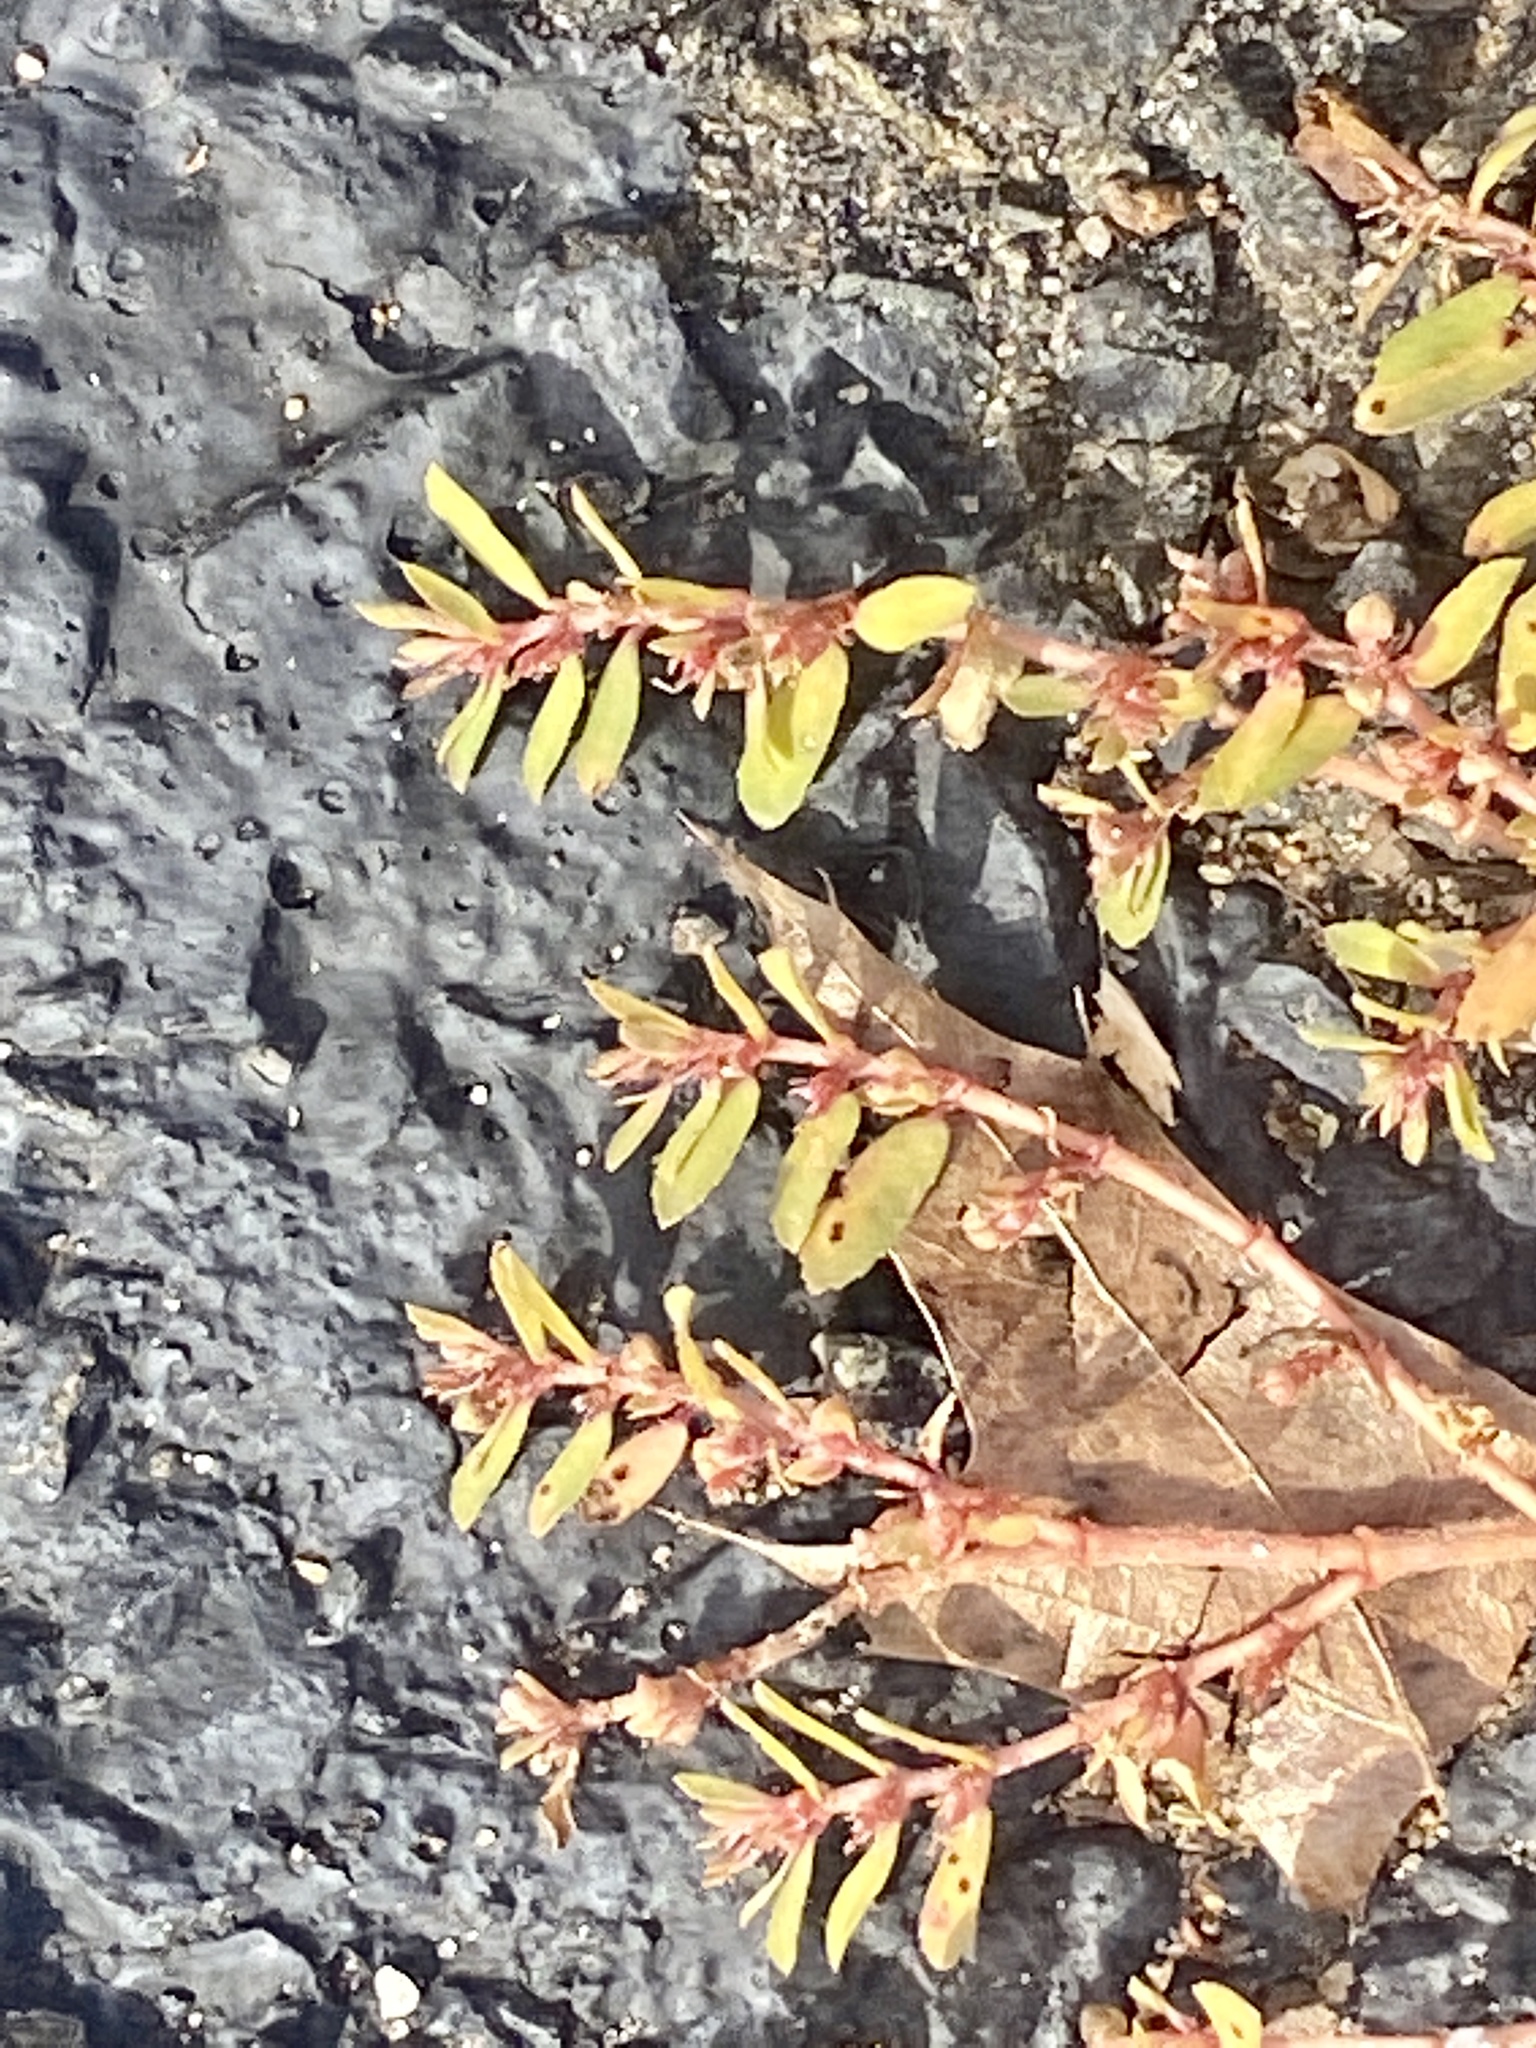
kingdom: Plantae
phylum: Tracheophyta
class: Magnoliopsida
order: Malpighiales
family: Euphorbiaceae
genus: Euphorbia
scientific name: Euphorbia maculata
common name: Spotted spurge
